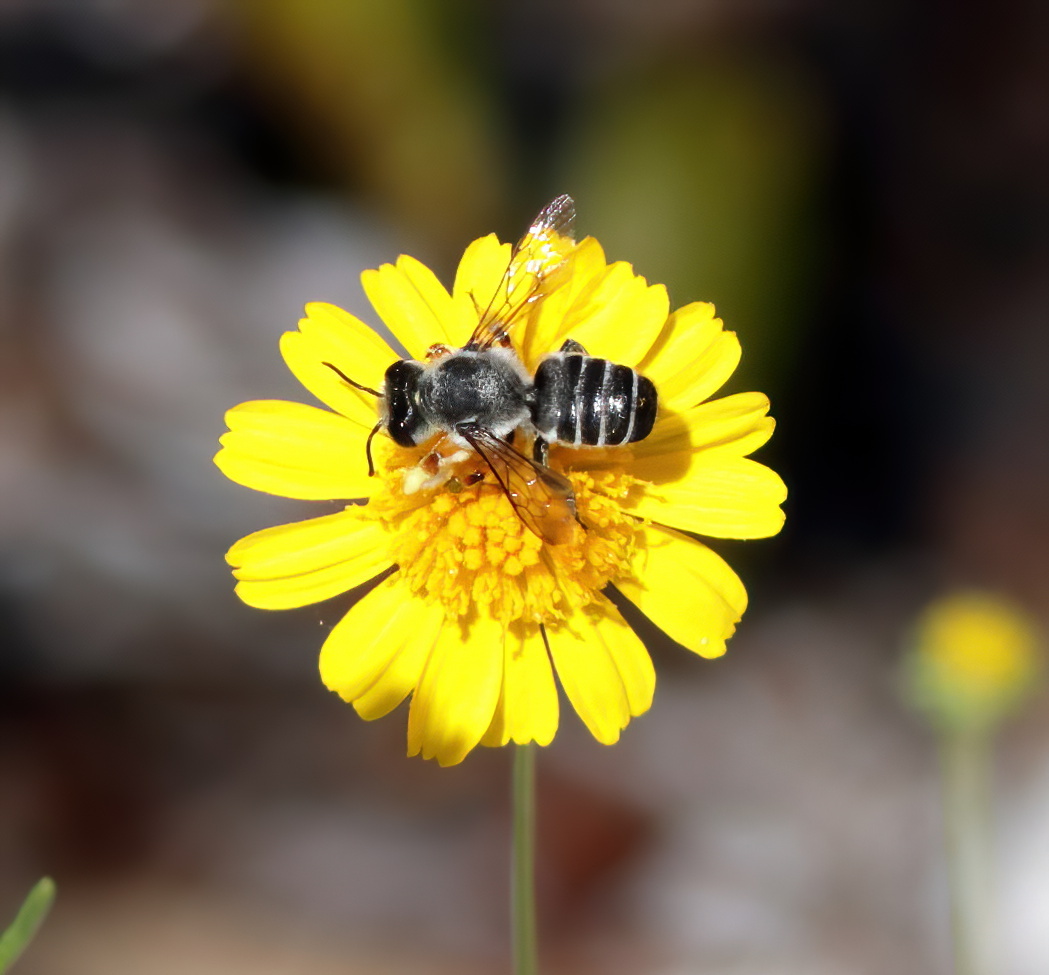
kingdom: Animalia
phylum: Arthropoda
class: Insecta
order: Hymenoptera
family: Megachilidae
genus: Megachile
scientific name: Megachile policaris
